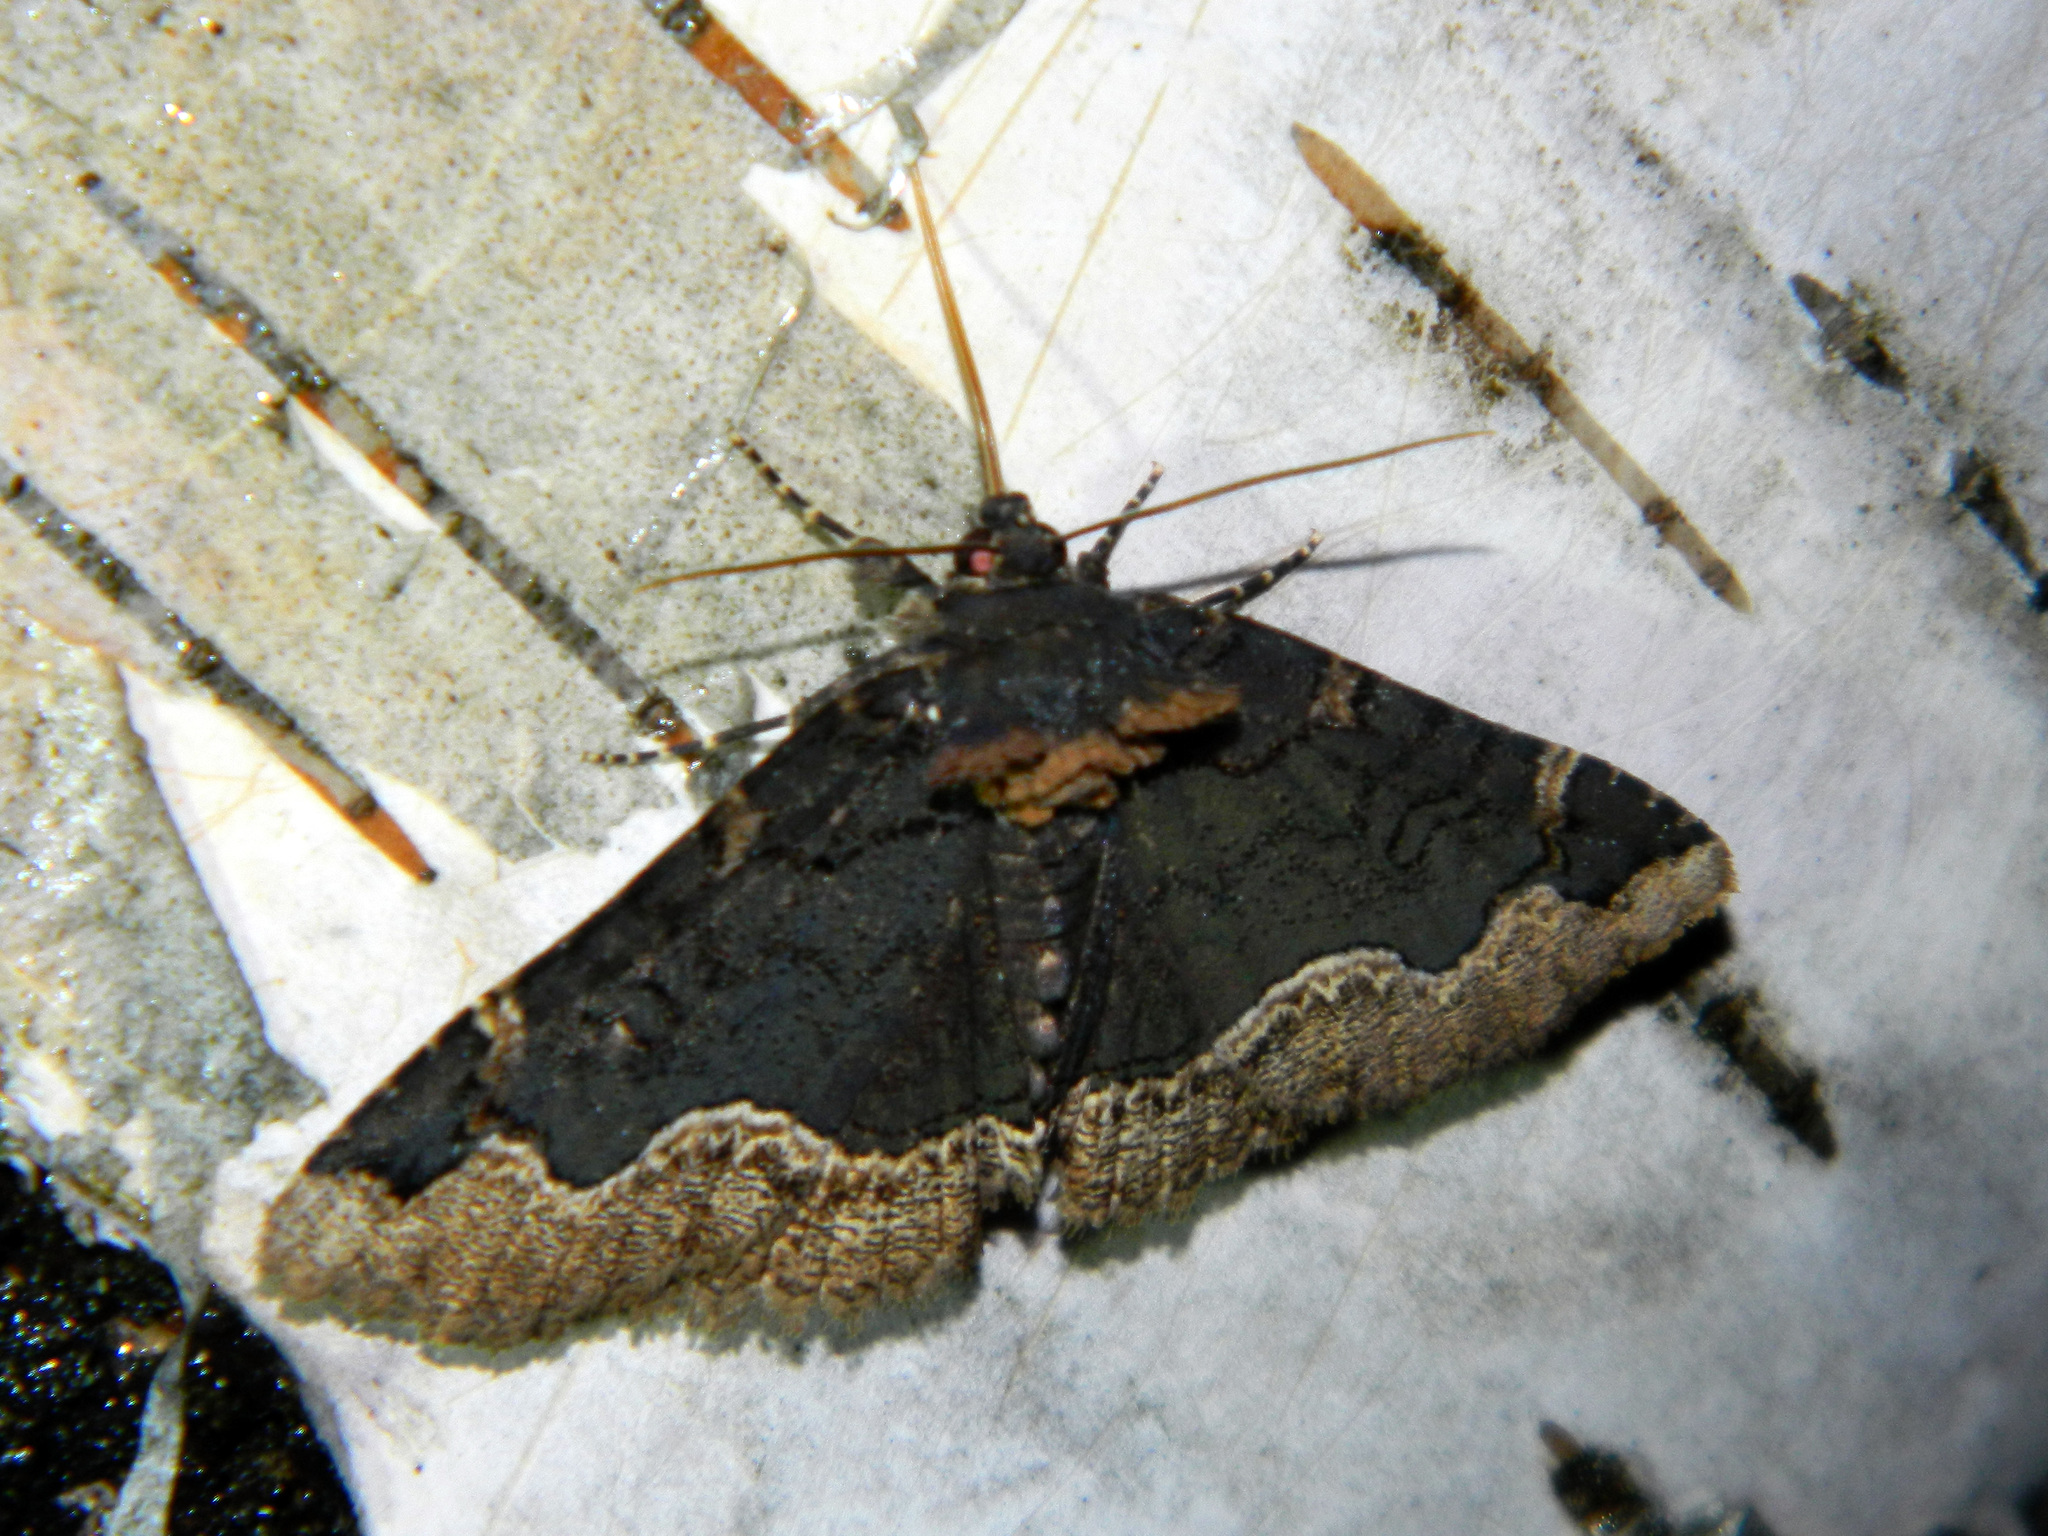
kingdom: Animalia
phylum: Arthropoda
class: Insecta
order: Lepidoptera
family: Erebidae
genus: Zale
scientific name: Zale horrida
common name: Horrid zale moth
